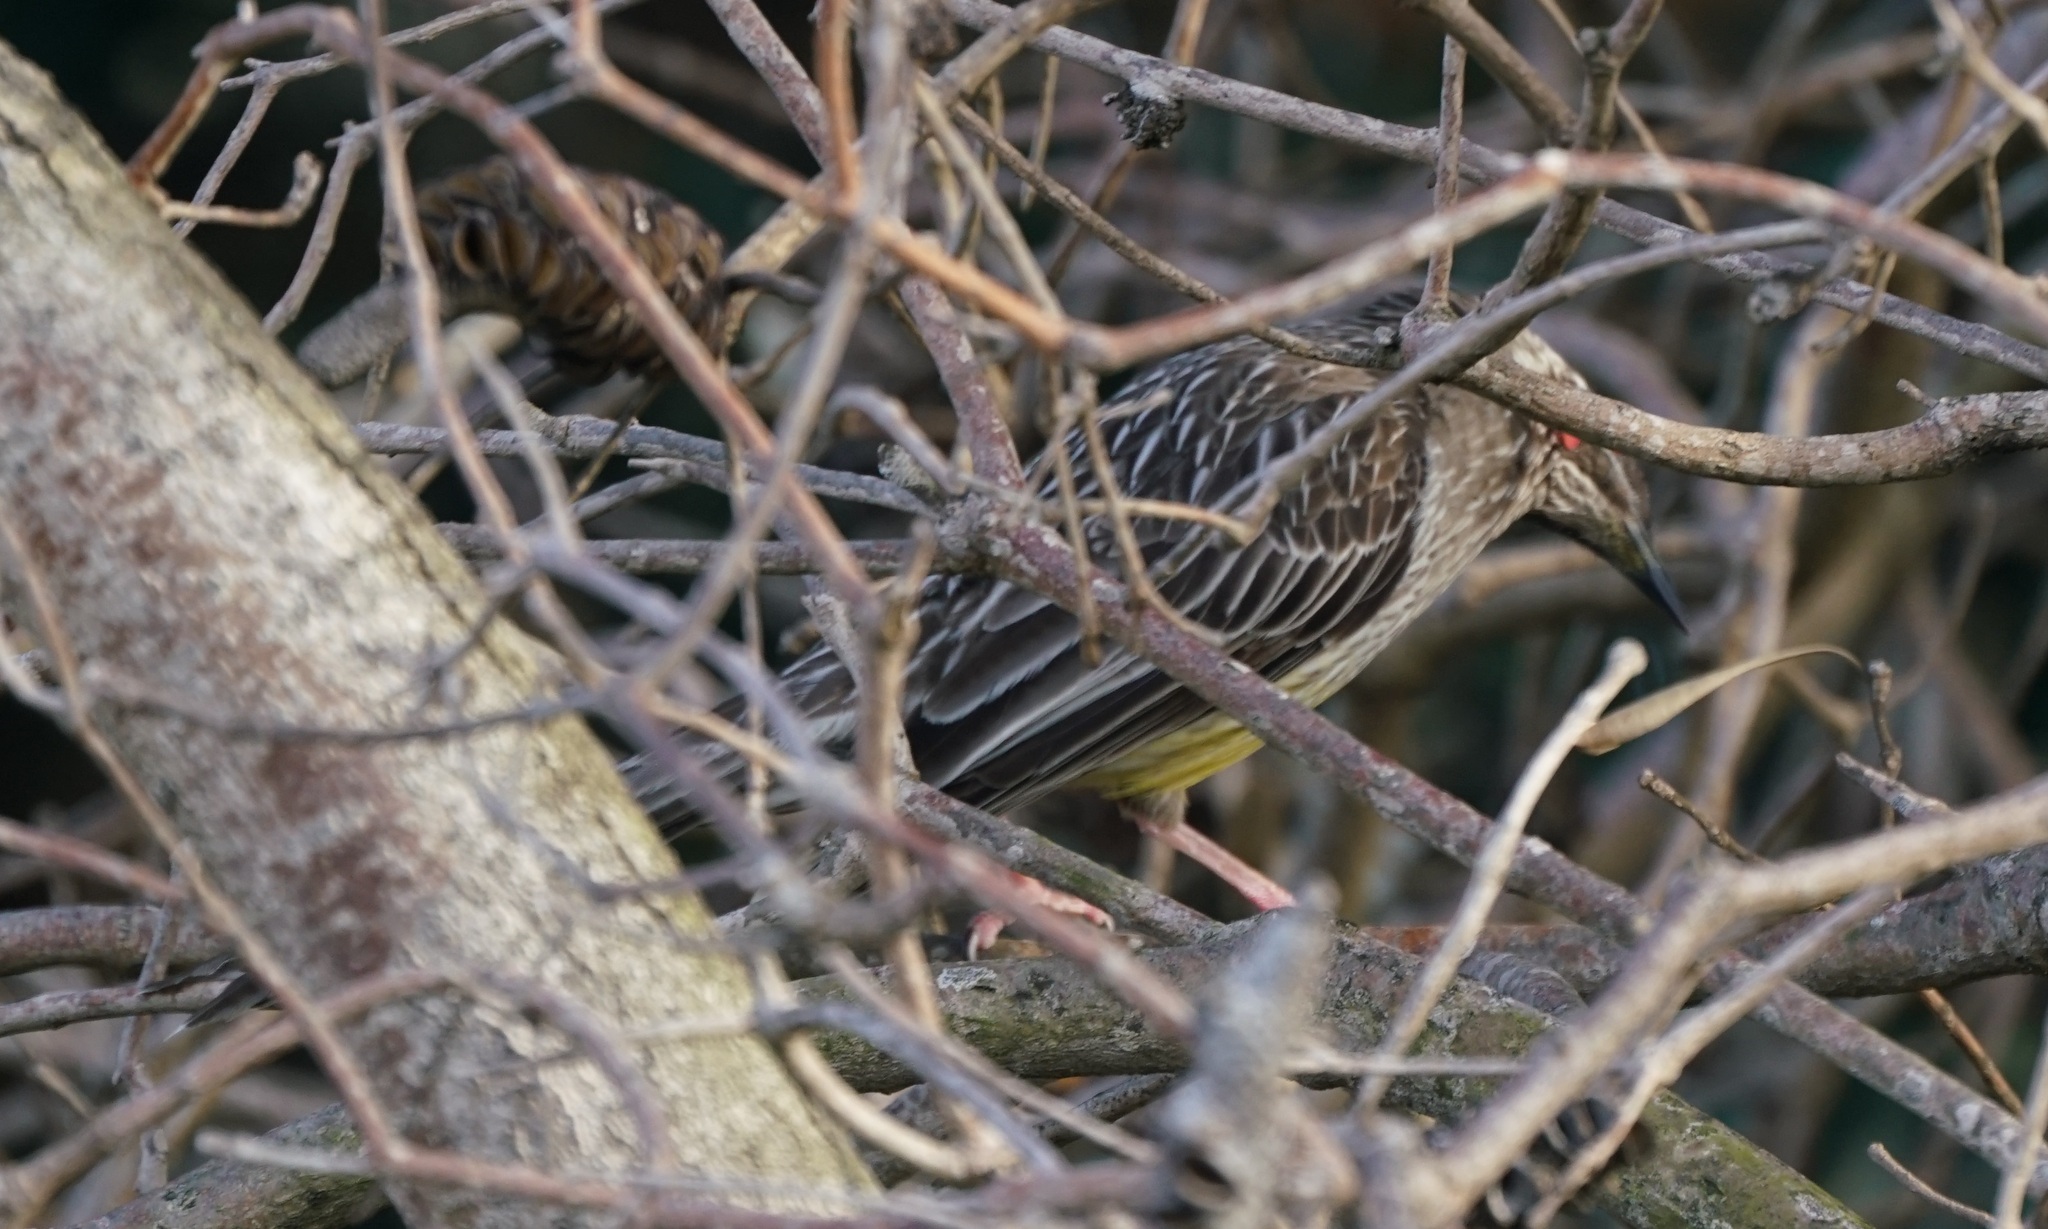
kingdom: Animalia
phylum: Chordata
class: Aves
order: Passeriformes
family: Meliphagidae
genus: Anthochaera
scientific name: Anthochaera carunculata
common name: Red wattlebird
